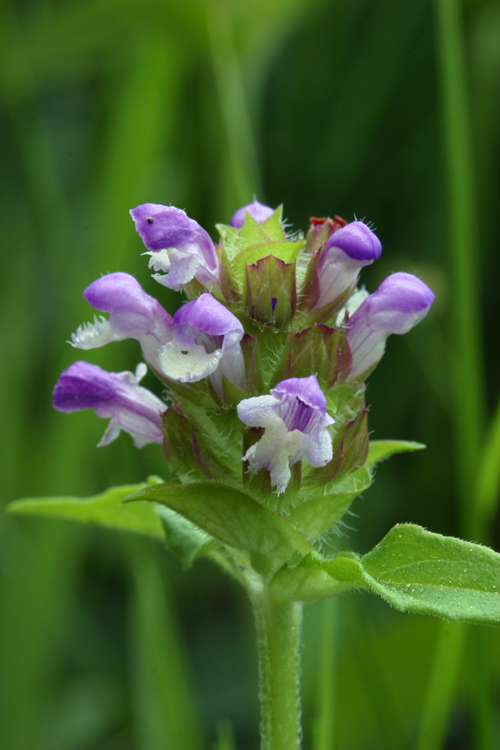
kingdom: Plantae
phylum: Tracheophyta
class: Magnoliopsida
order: Lamiales
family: Lamiaceae
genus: Prunella
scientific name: Prunella vulgaris
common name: Heal-all
